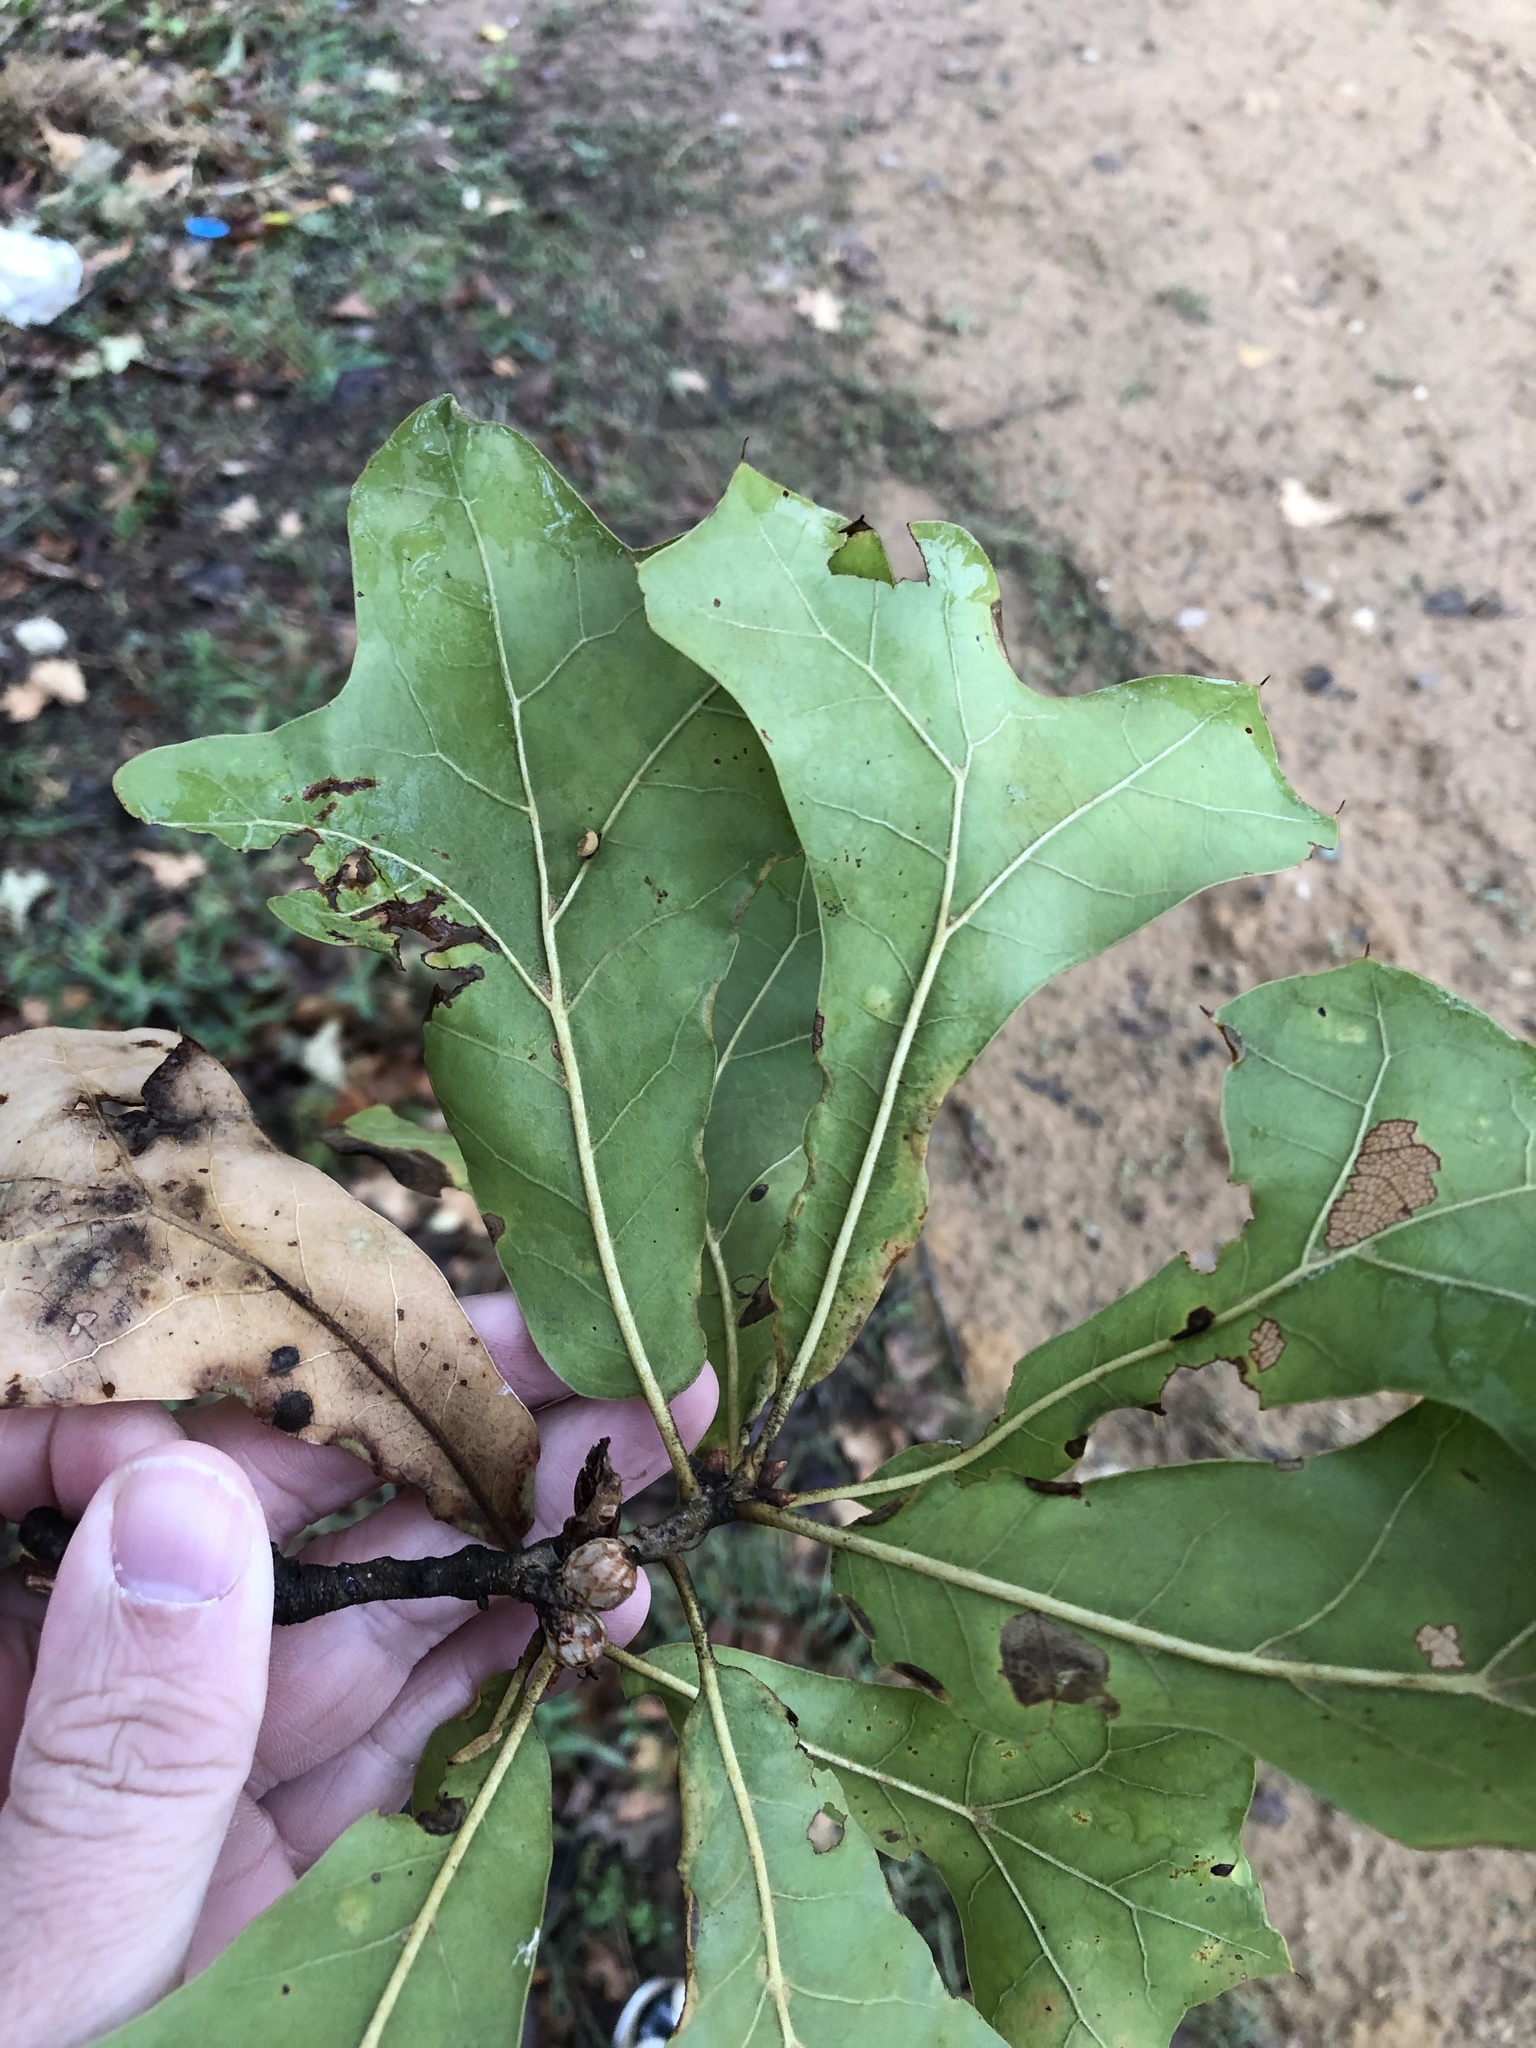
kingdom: Plantae
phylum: Tracheophyta
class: Magnoliopsida
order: Fagales
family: Fagaceae
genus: Quercus
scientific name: Quercus marilandica
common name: Blackjack oak
